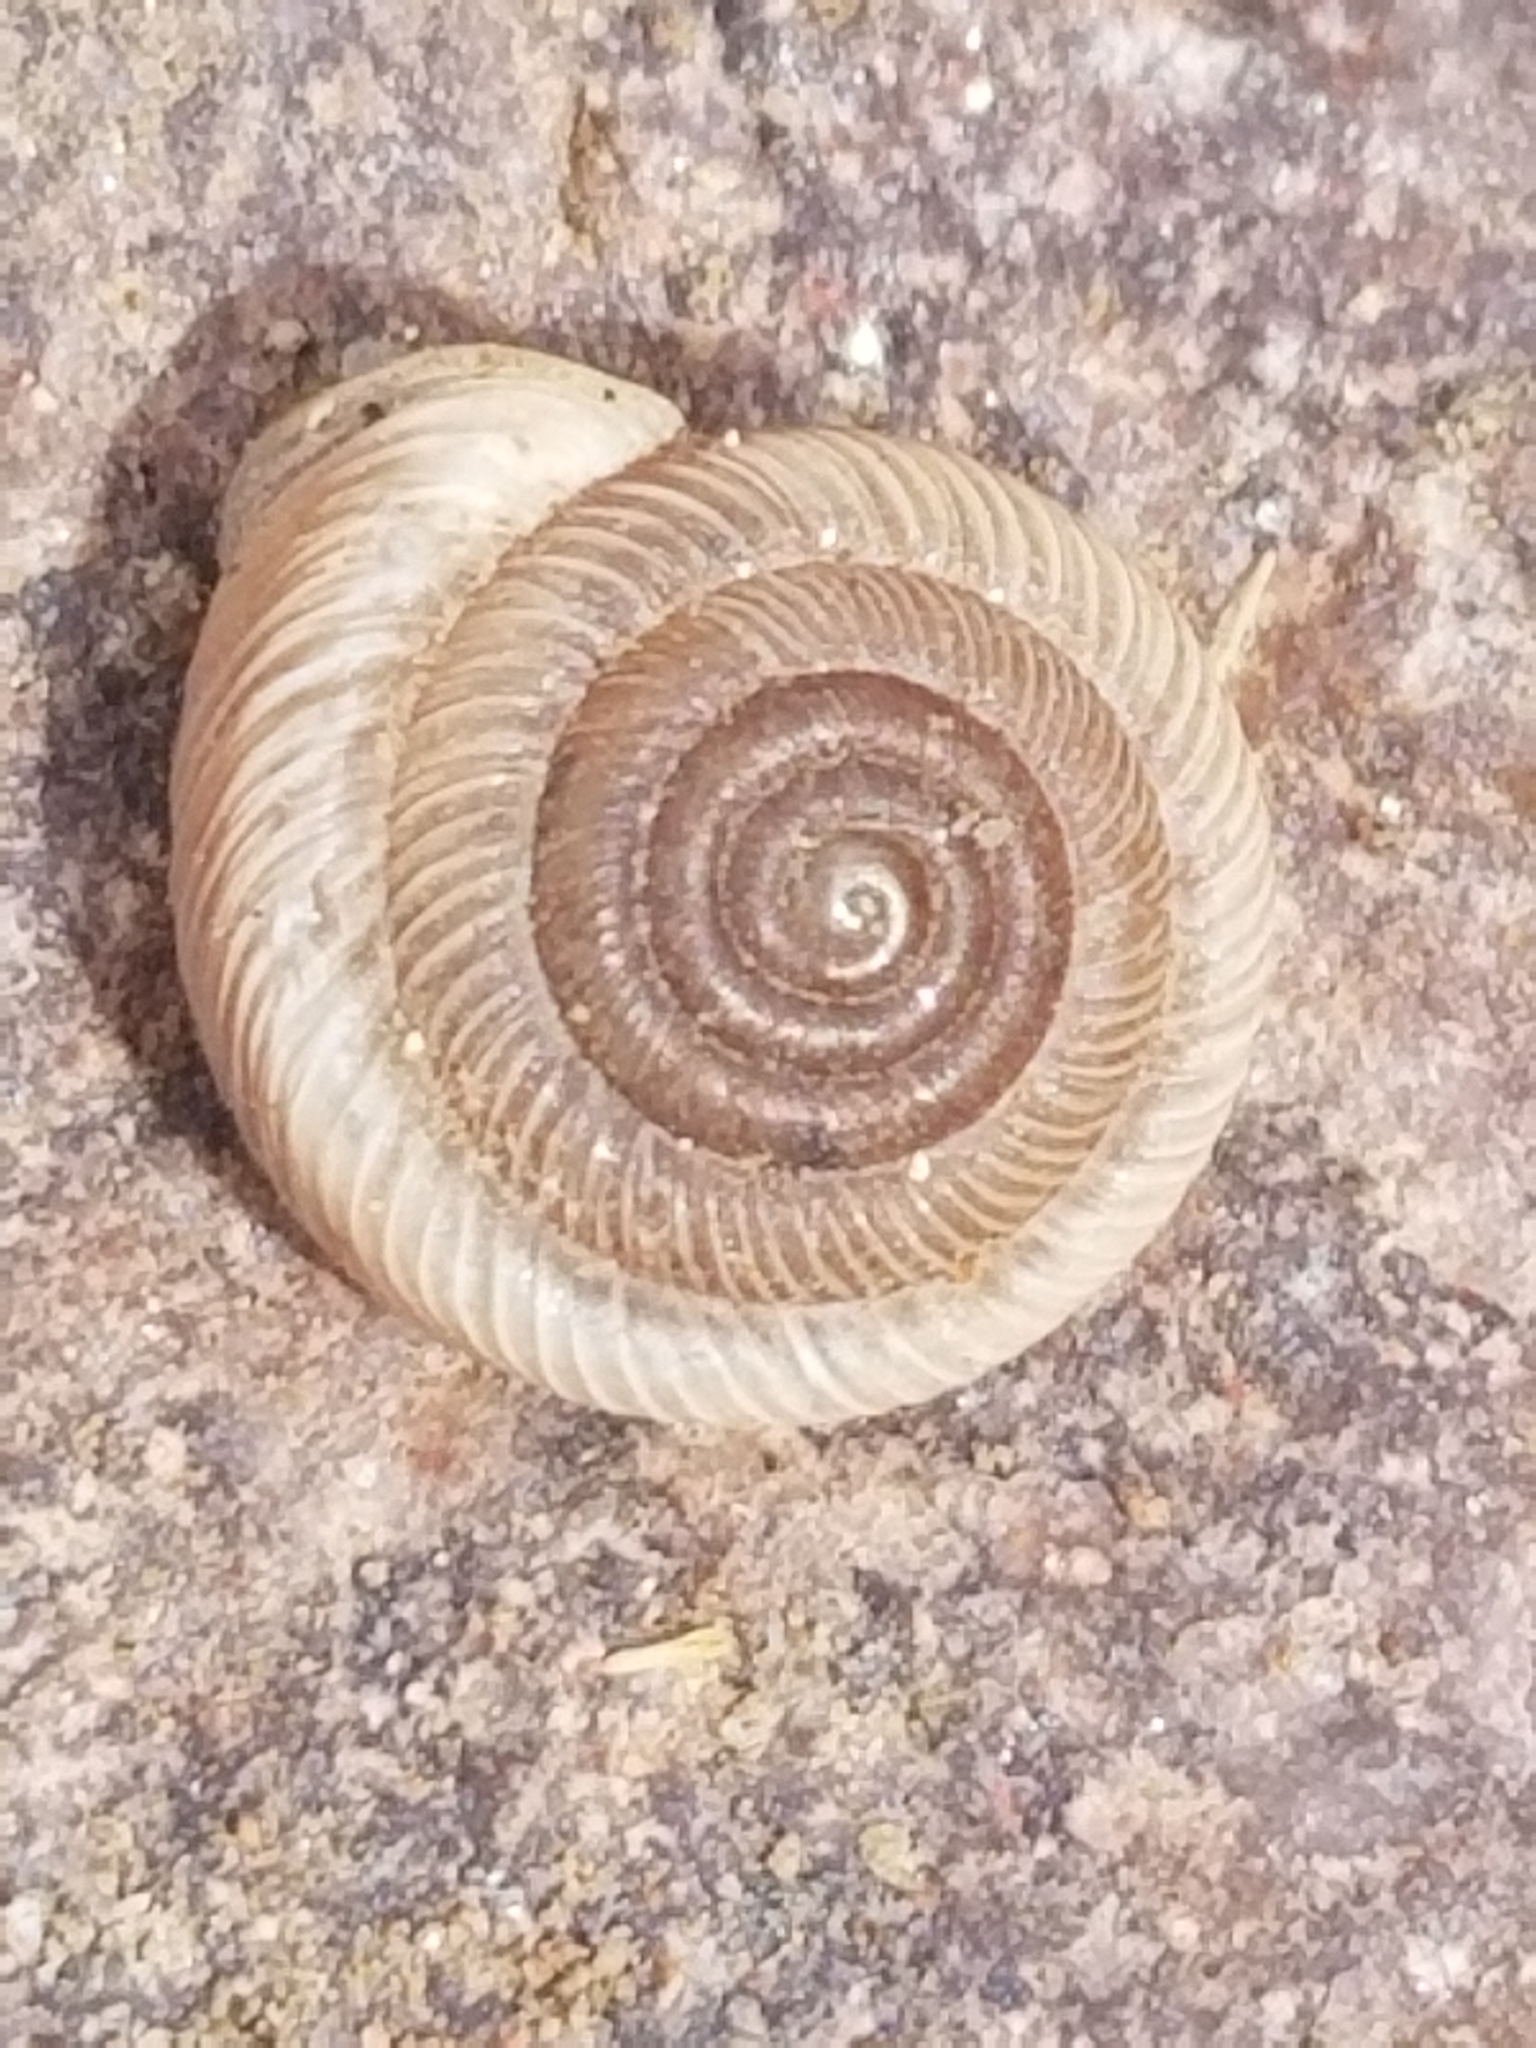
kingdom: Animalia
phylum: Mollusca
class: Gastropoda
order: Stylommatophora
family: Polygyridae
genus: Polygyra
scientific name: Polygyra cereolus
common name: Southern flatcone snail
